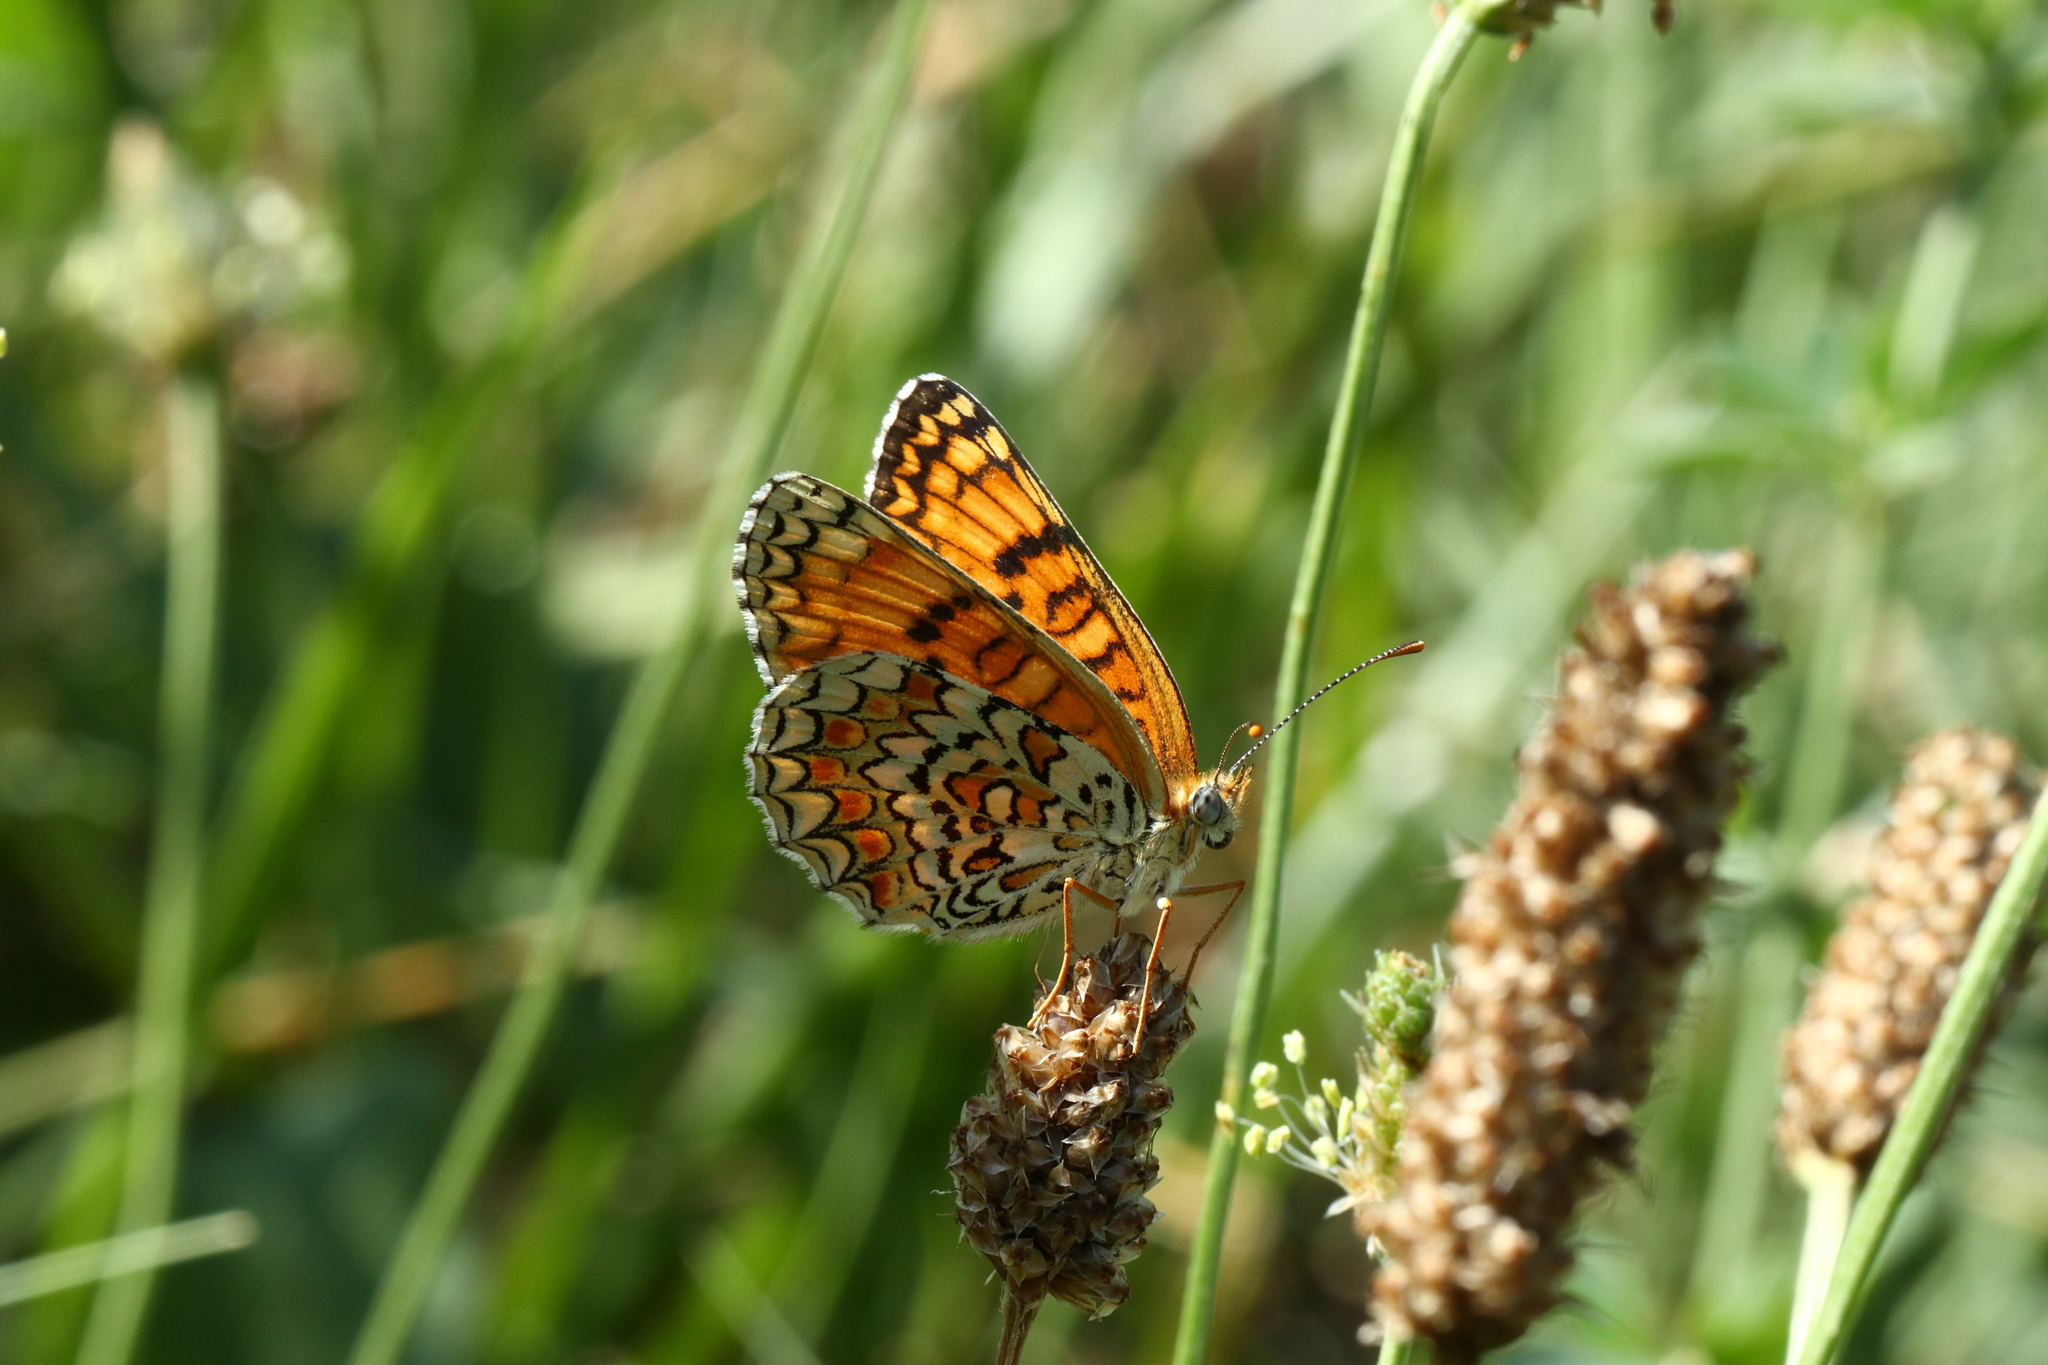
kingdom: Animalia
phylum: Arthropoda
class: Insecta
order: Lepidoptera
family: Nymphalidae
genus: Melitaea
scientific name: Melitaea phoebe
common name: Knapweed fritillary
